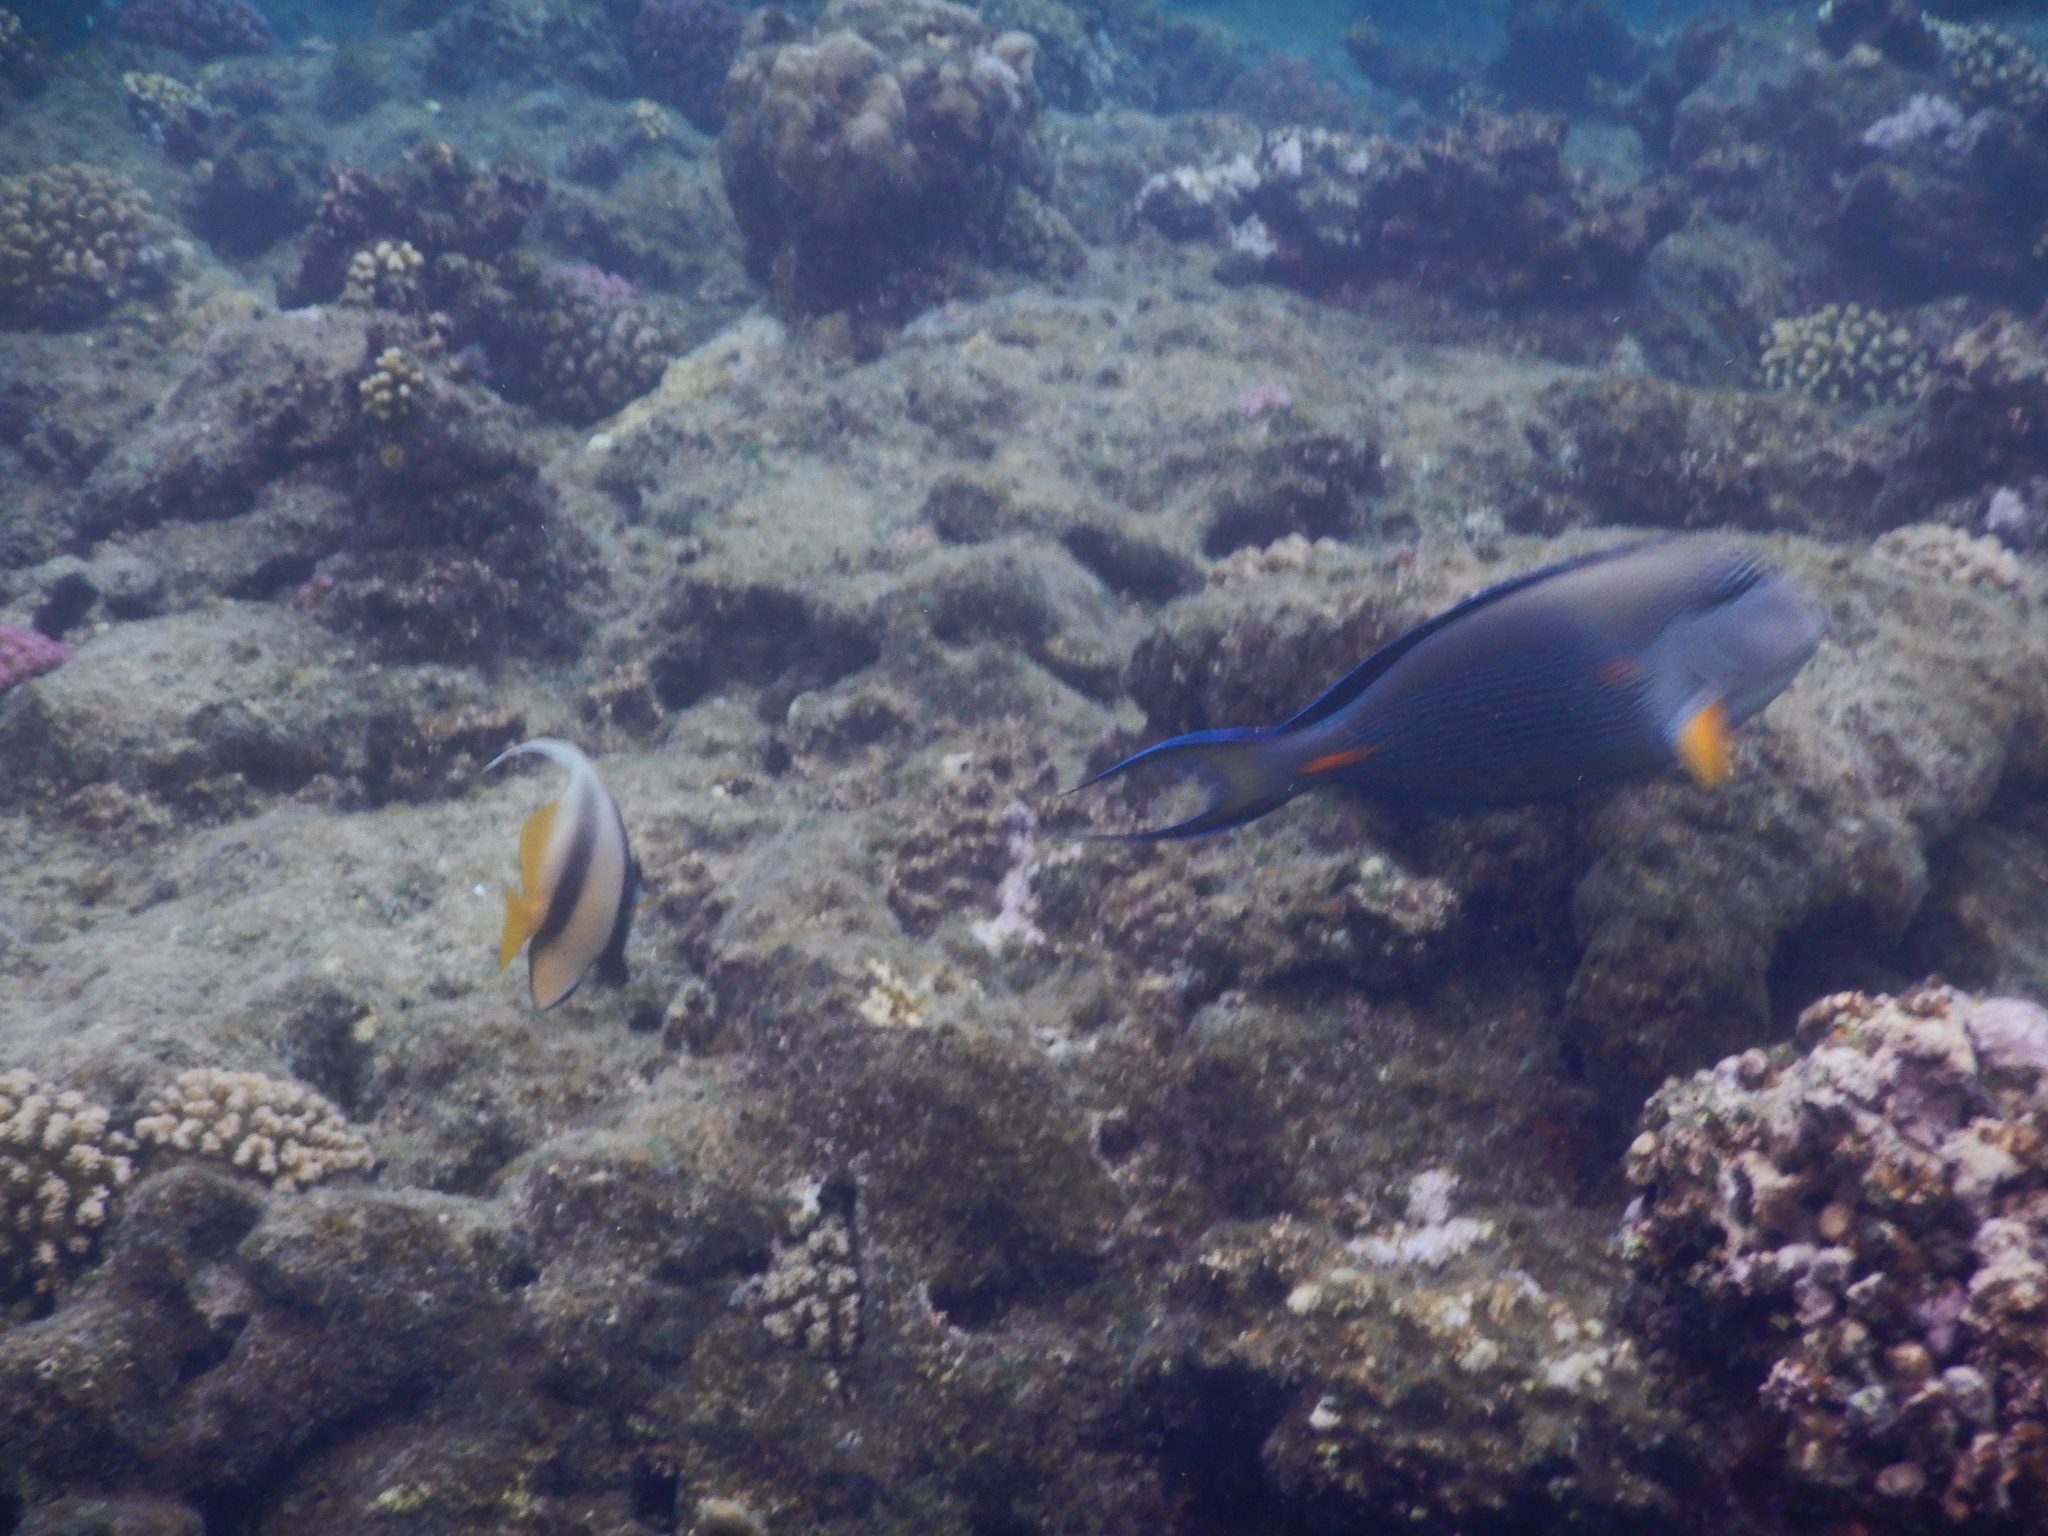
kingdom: Animalia
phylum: Chordata
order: Perciformes
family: Chaetodontidae
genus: Heniochus
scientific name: Heniochus intermedius
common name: Red sea bannerfish
